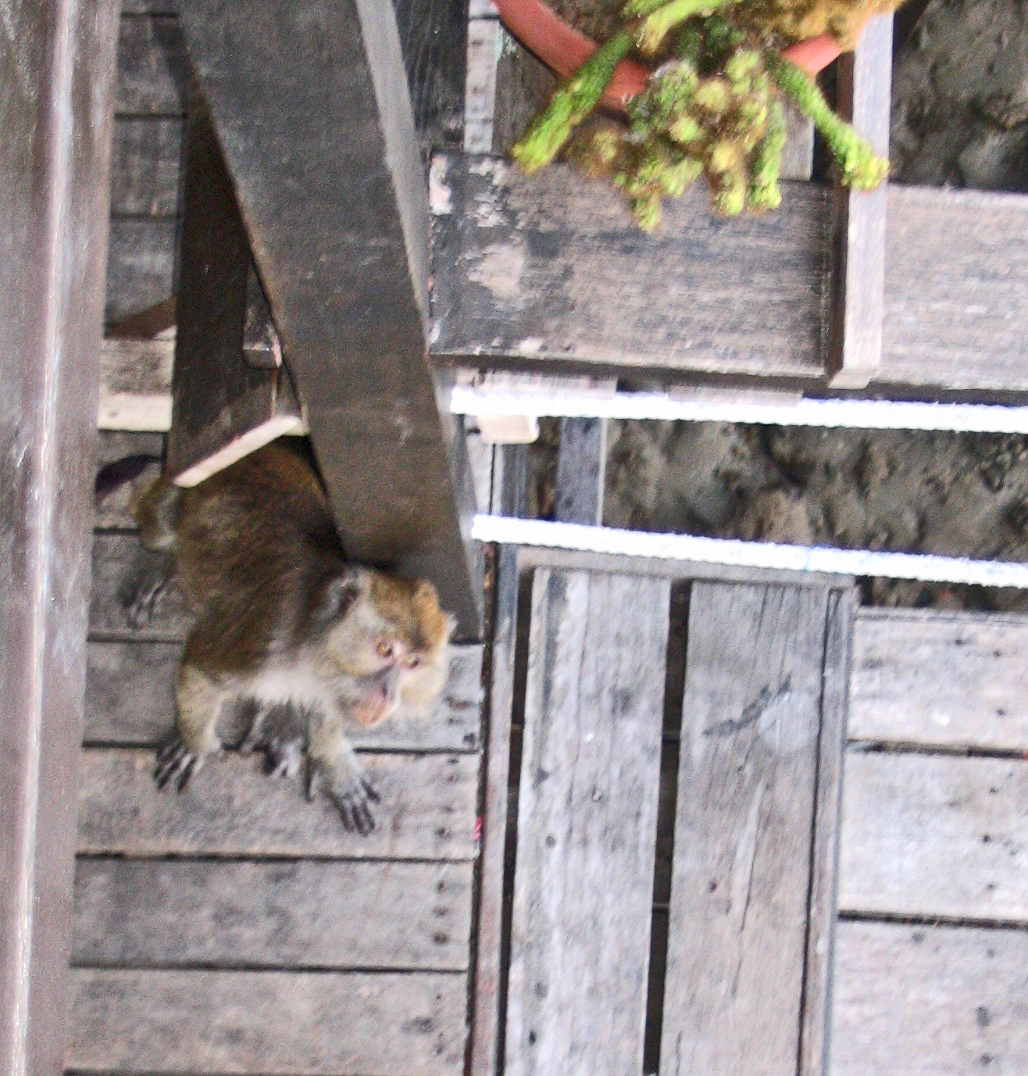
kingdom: Animalia
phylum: Chordata
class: Mammalia
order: Primates
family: Cercopithecidae
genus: Macaca
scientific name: Macaca fascicularis
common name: Crab-eating macaque
